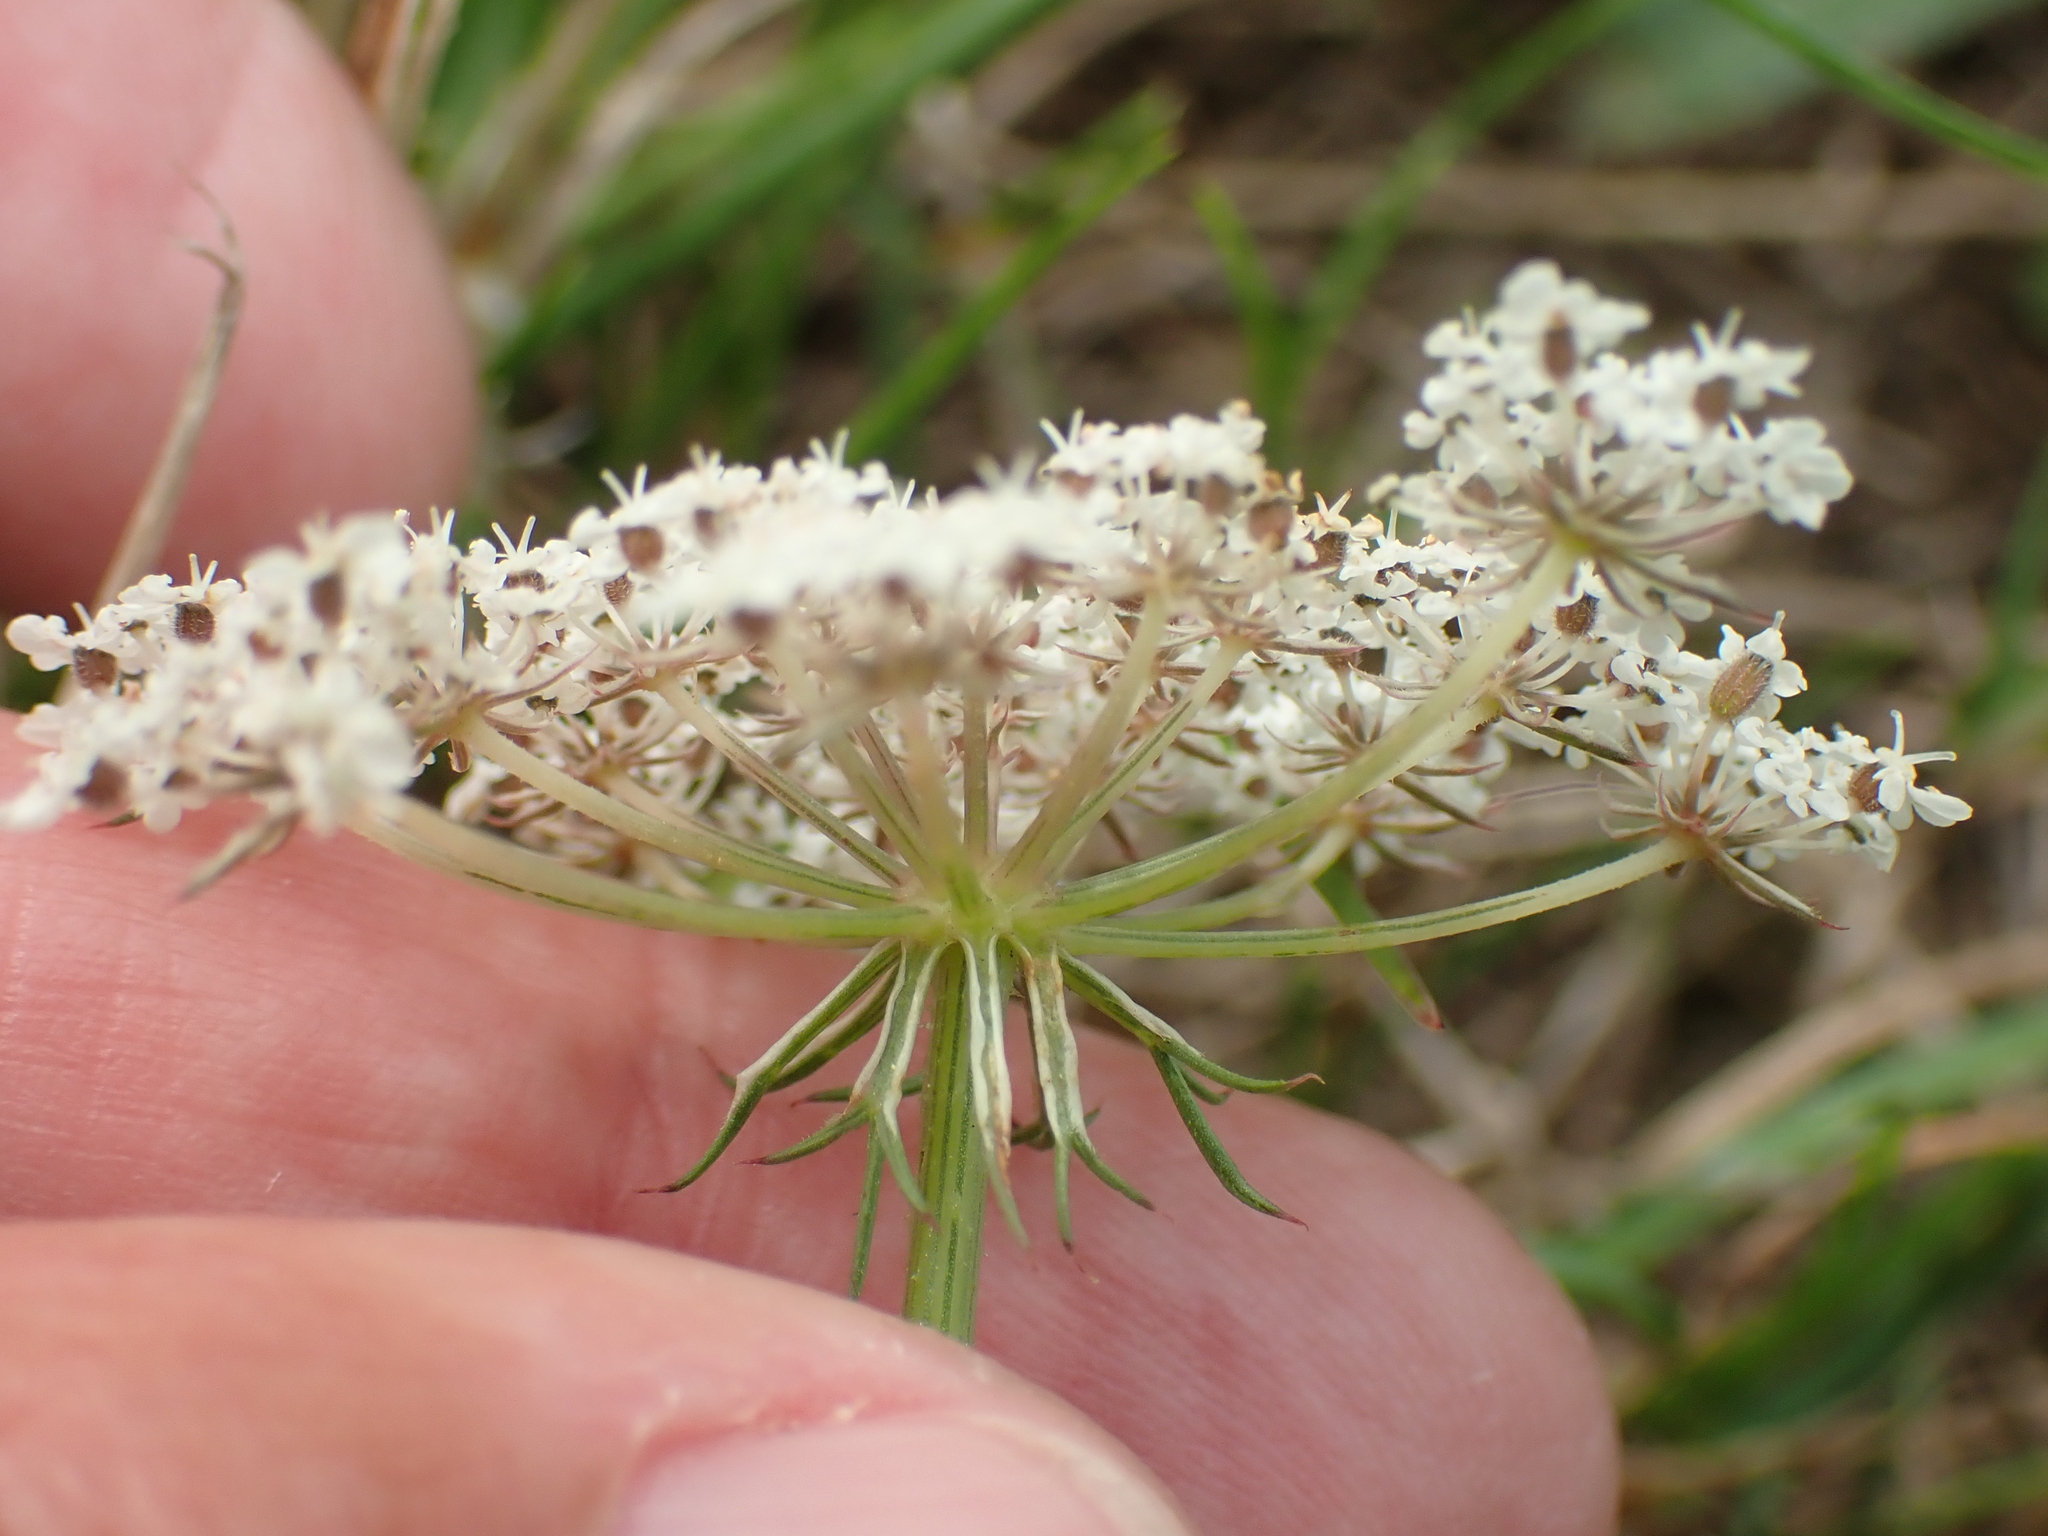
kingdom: Plantae
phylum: Tracheophyta
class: Magnoliopsida
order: Apiales
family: Apiaceae
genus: Daucus
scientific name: Daucus carota
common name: Wild carrot
